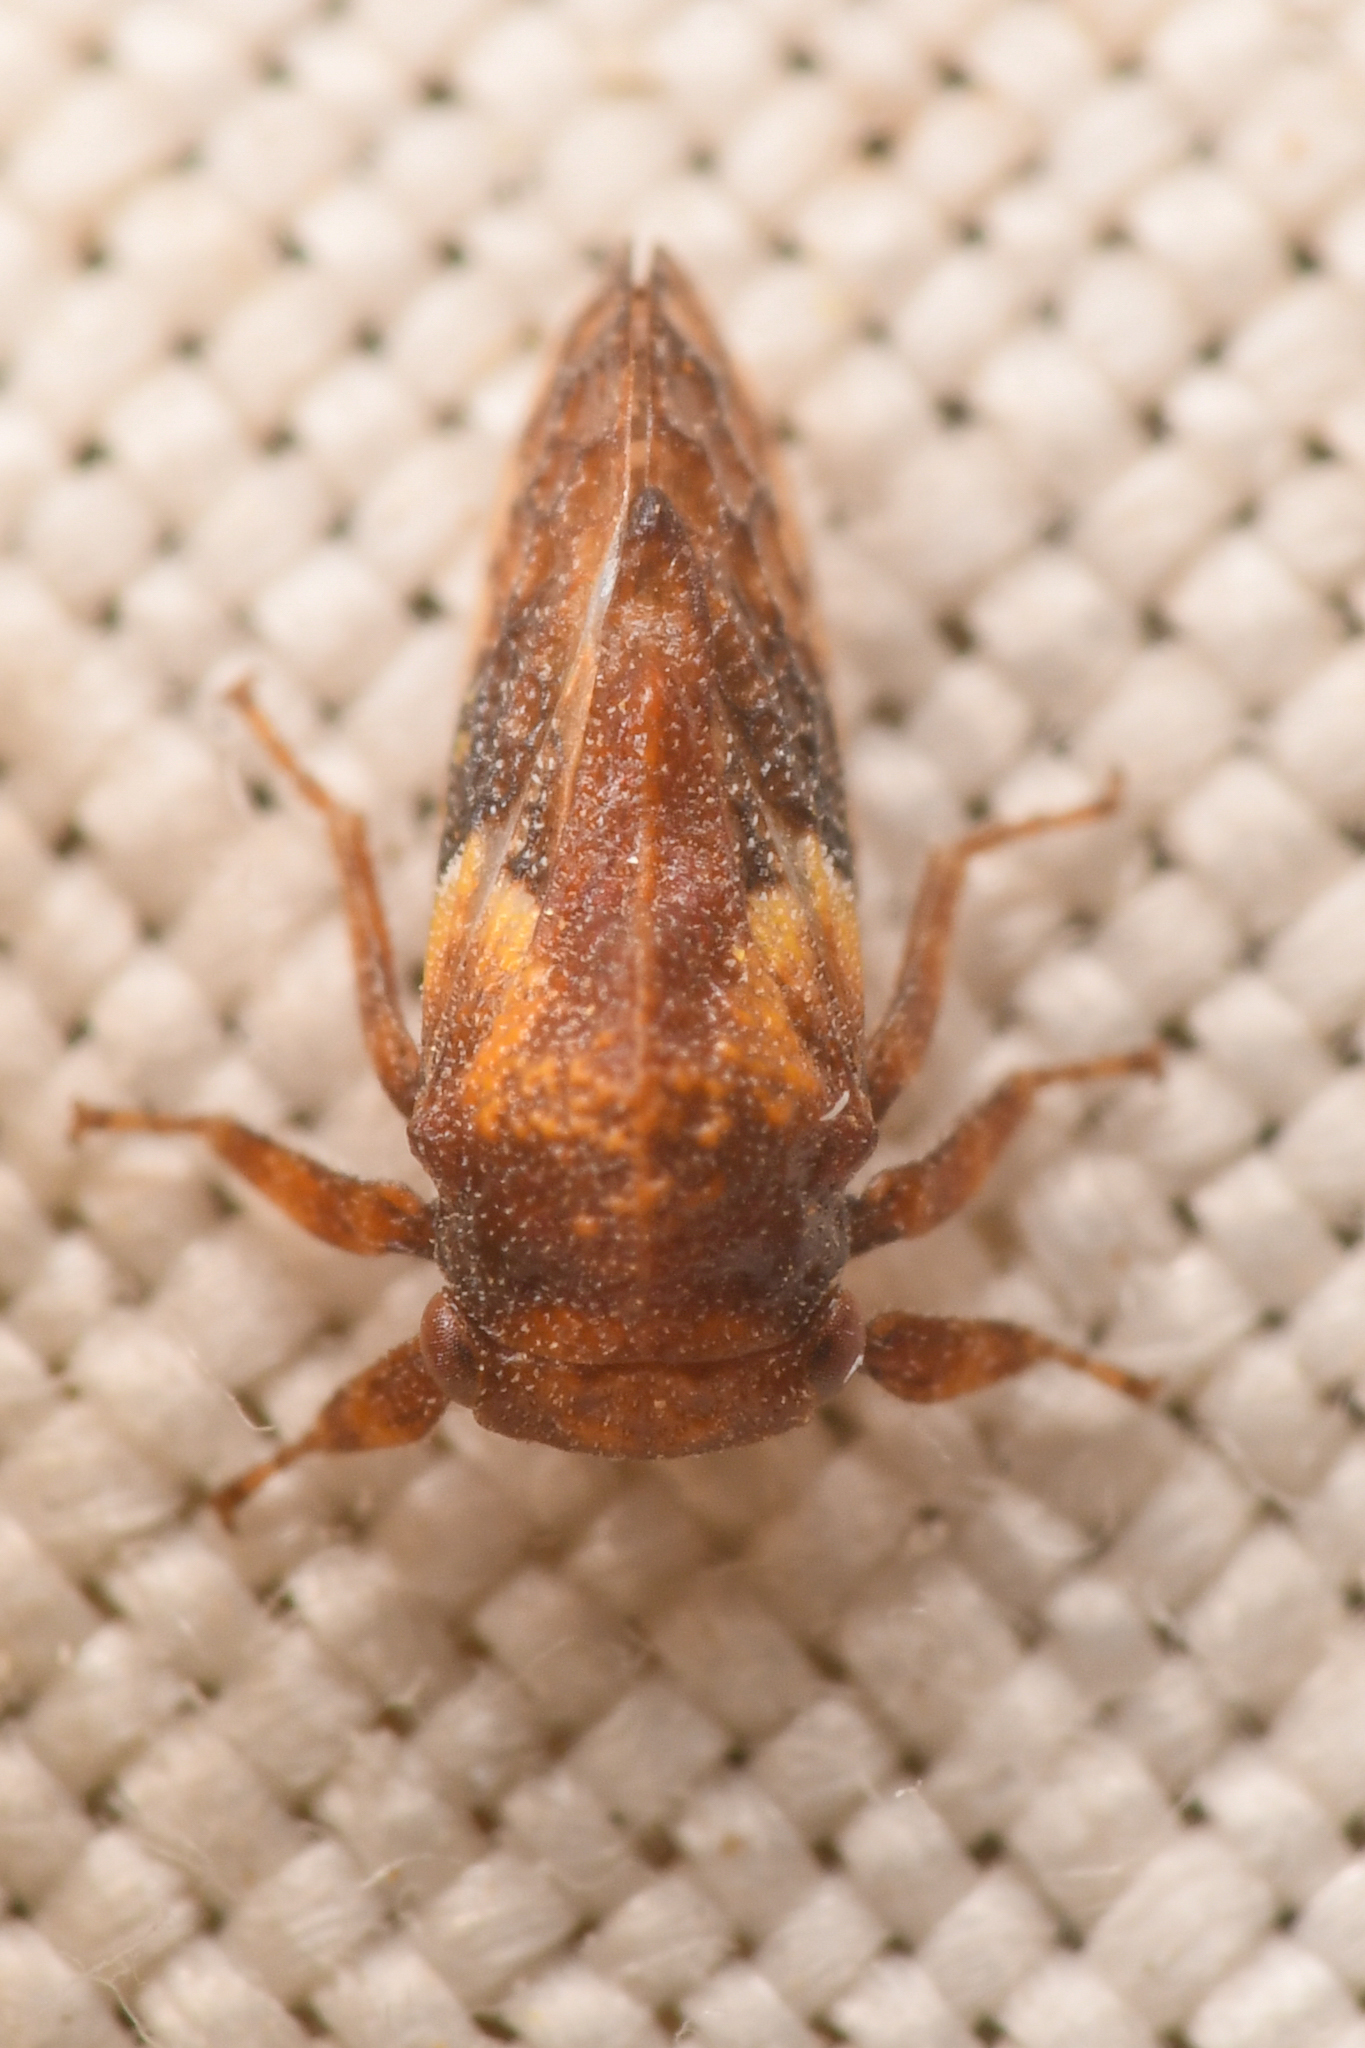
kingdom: Animalia
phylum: Arthropoda
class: Insecta
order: Hemiptera
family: Membracidae
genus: Centrodontus
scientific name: Centrodontus atlas
